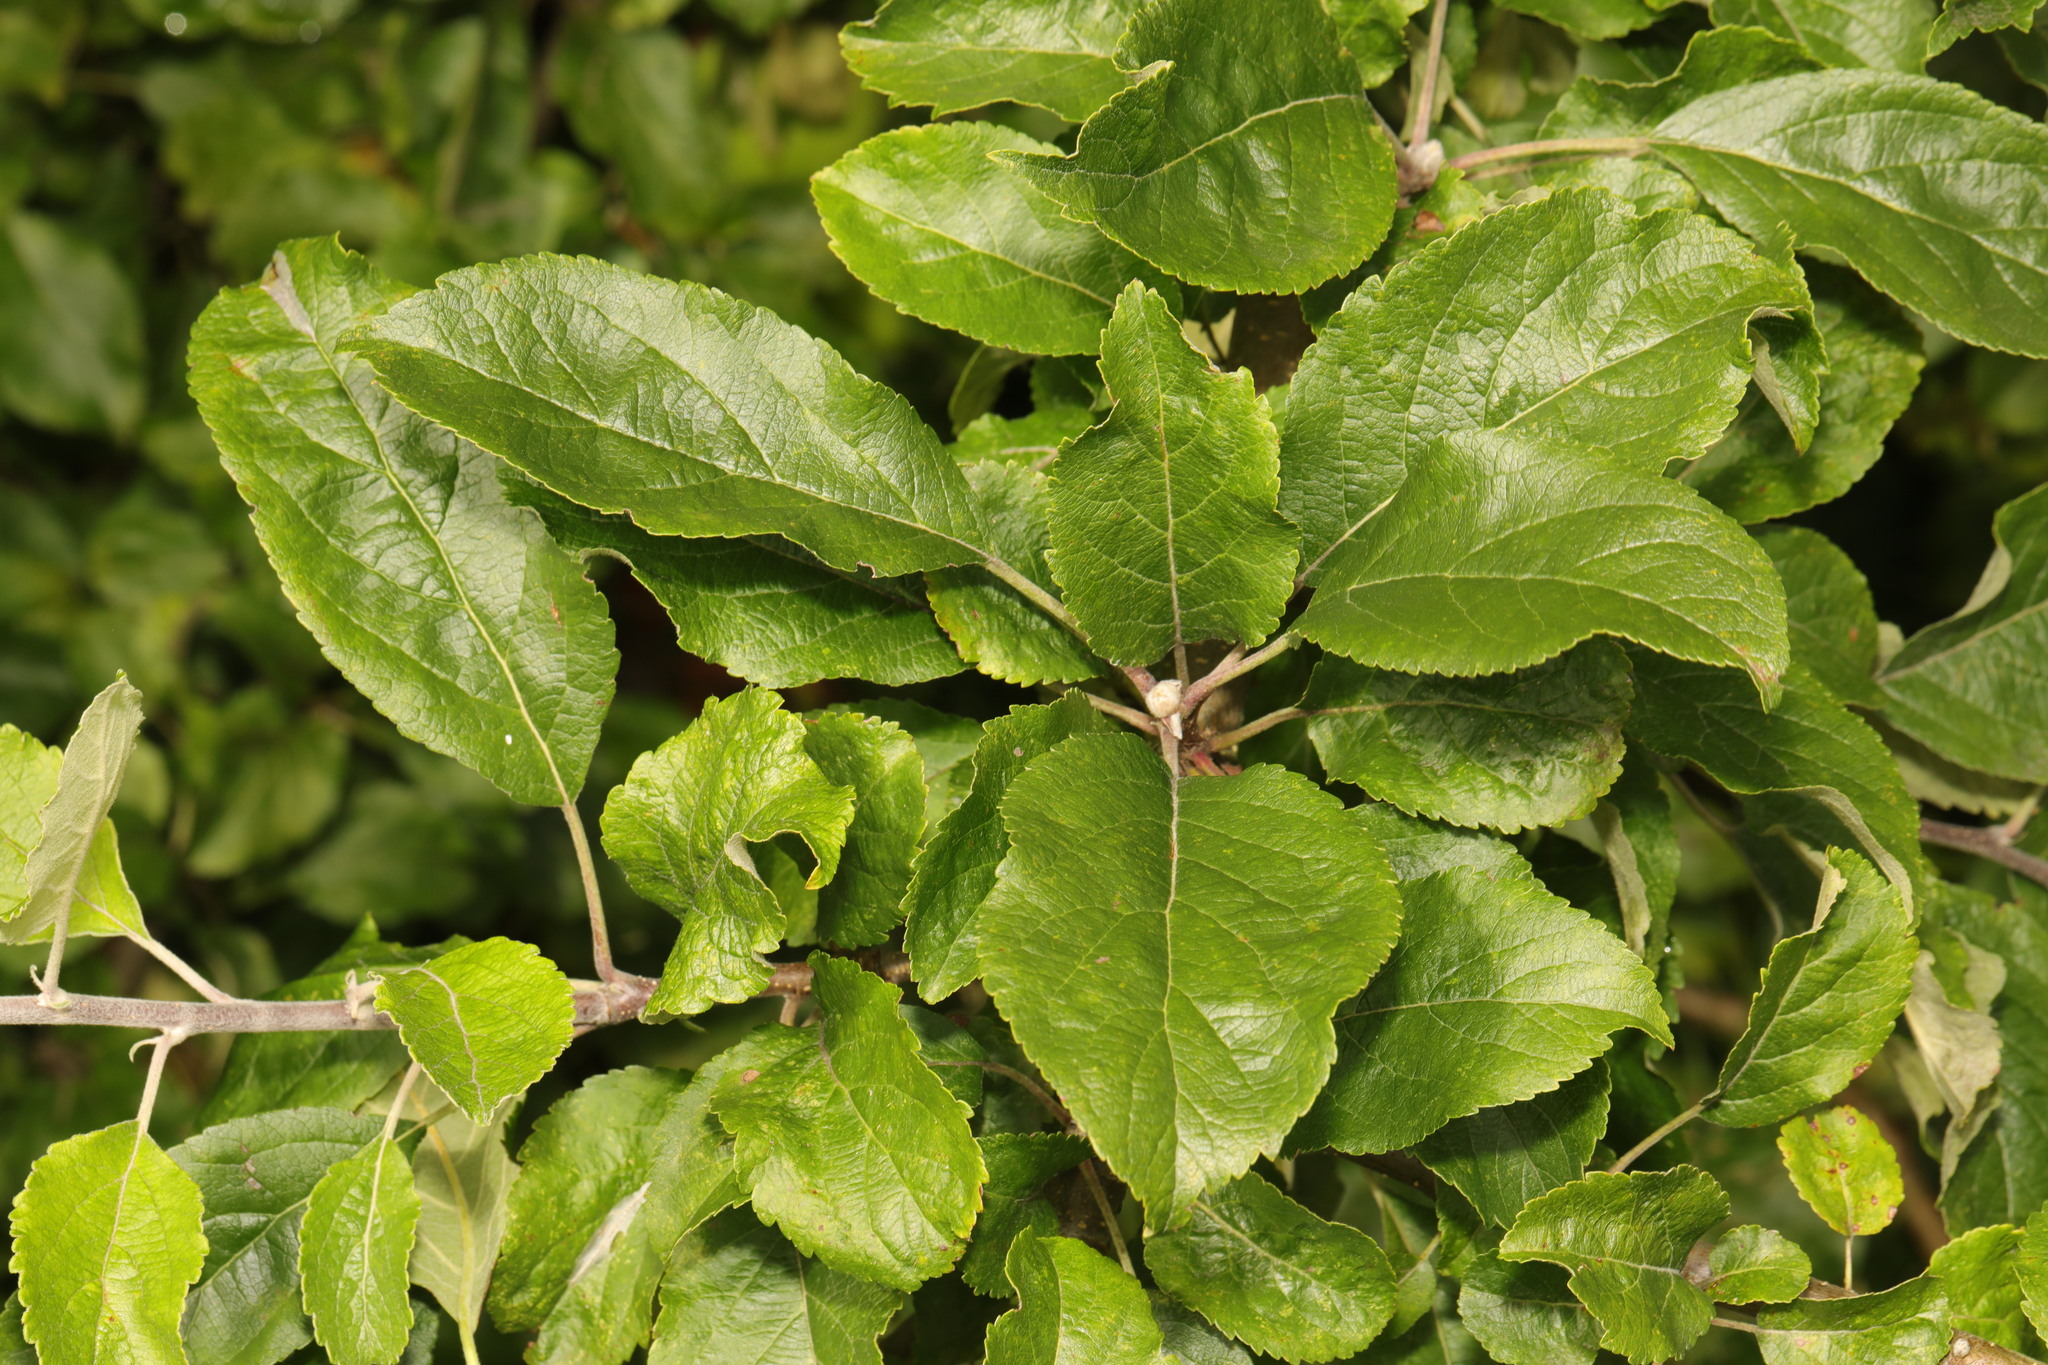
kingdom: Plantae
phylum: Tracheophyta
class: Magnoliopsida
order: Rosales
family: Rosaceae
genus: Malus
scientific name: Malus domestica
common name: Apple
